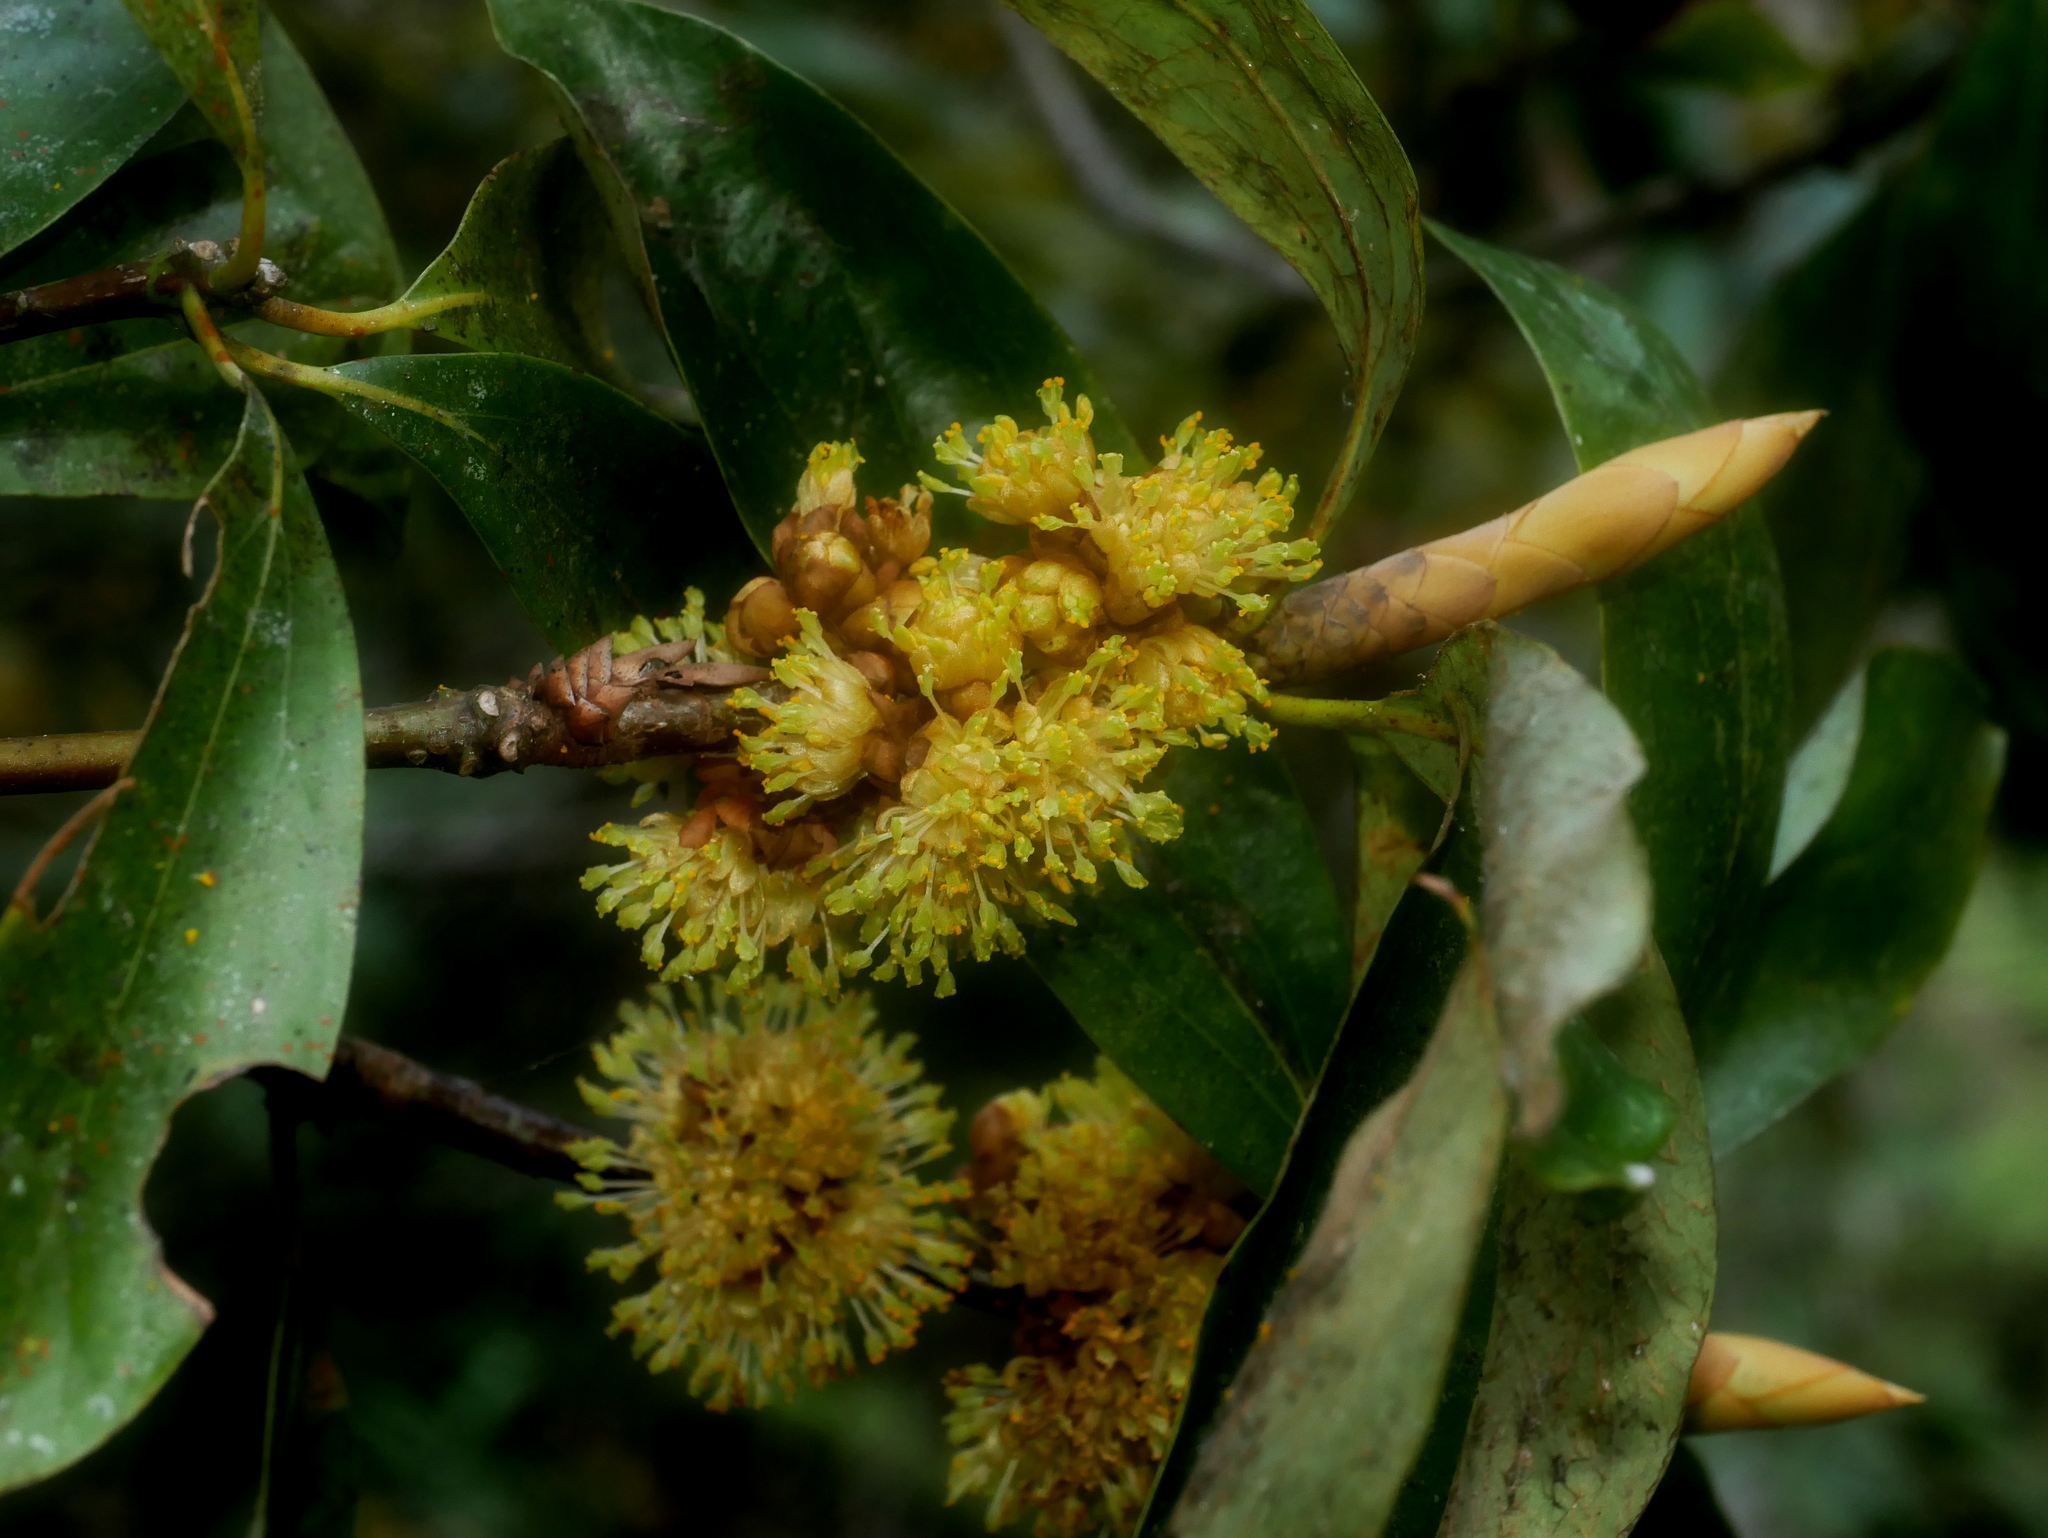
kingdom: Plantae
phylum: Tracheophyta
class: Magnoliopsida
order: Laurales
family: Lauraceae
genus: Neolitsea
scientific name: Neolitsea konishii
